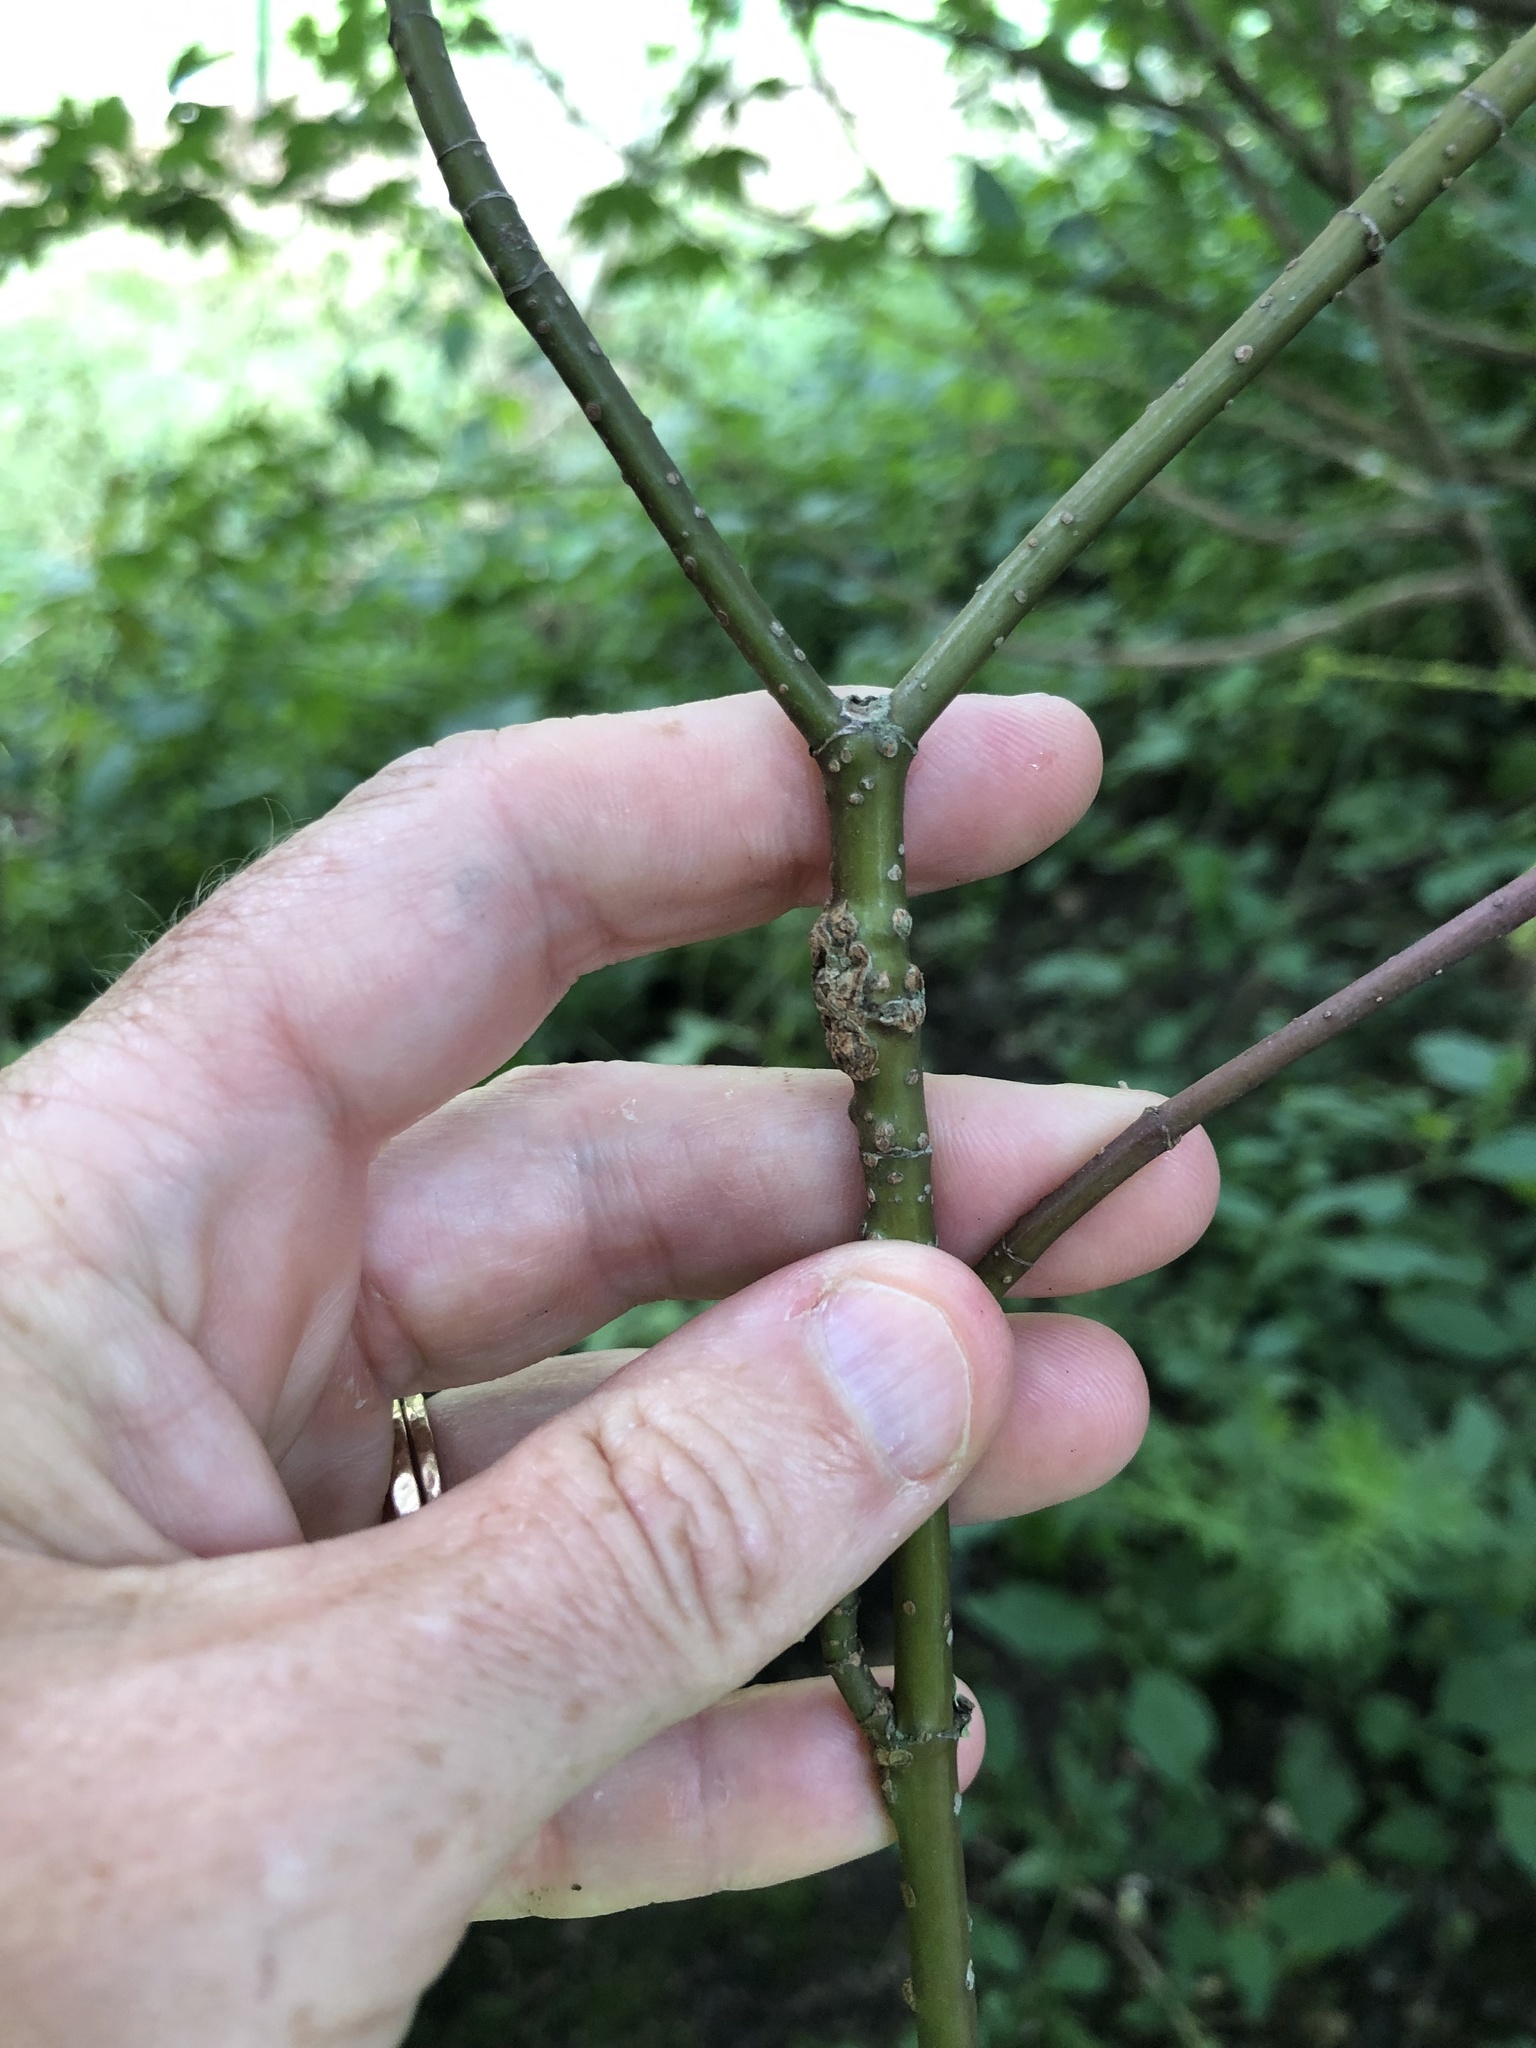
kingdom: Plantae
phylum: Tracheophyta
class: Magnoliopsida
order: Cornales
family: Cornaceae
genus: Cornus
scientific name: Cornus sanguinea
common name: Dogwood
